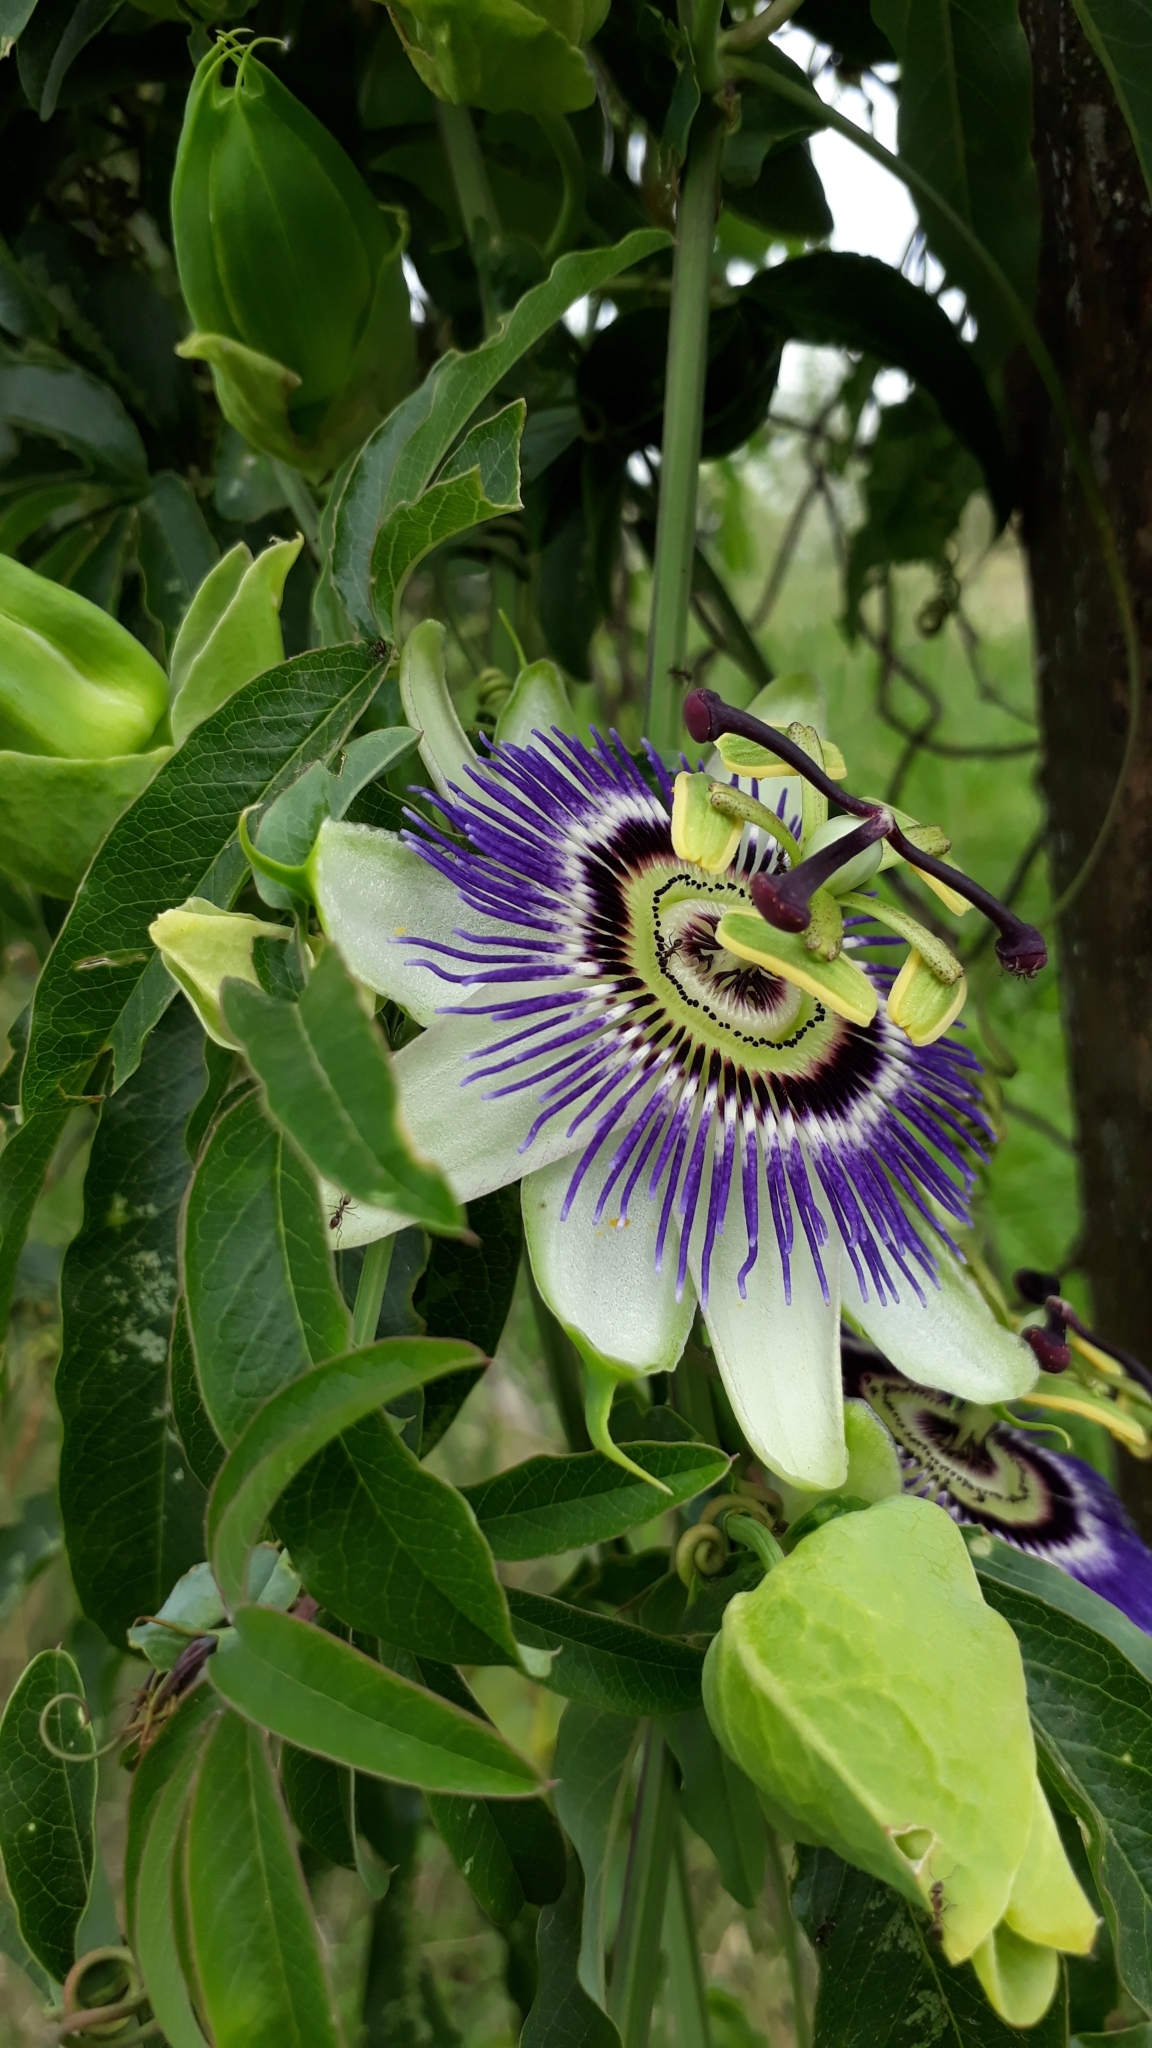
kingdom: Plantae
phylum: Tracheophyta
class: Magnoliopsida
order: Malpighiales
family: Passifloraceae
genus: Passiflora
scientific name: Passiflora caerulea
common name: Blue passionflower
